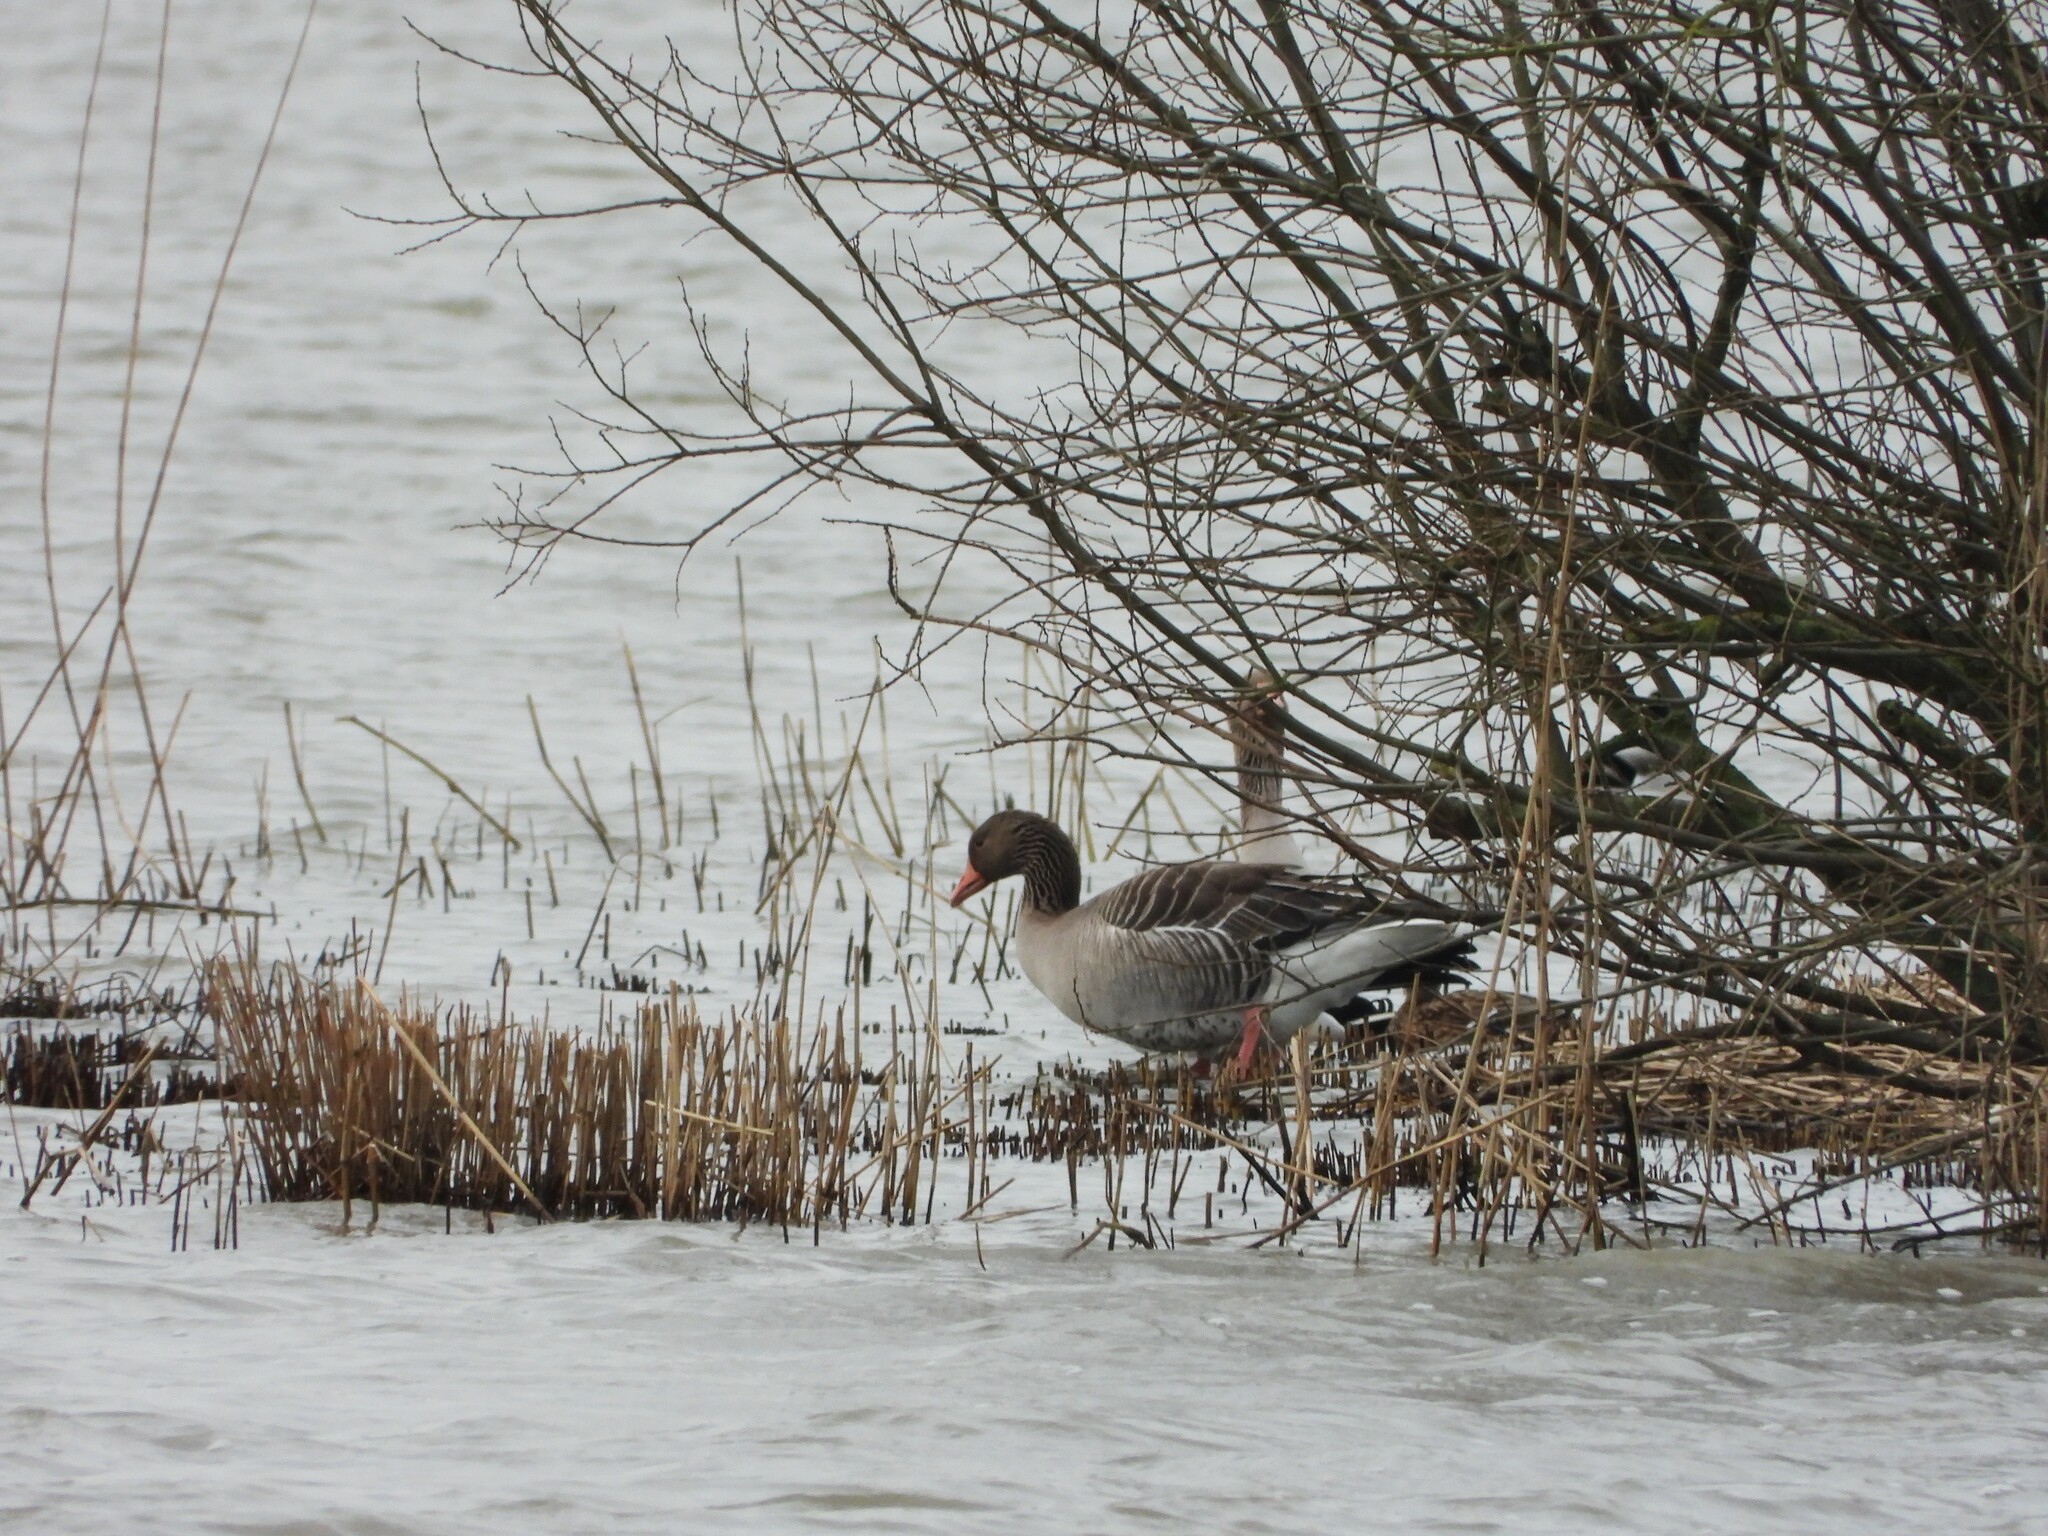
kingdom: Animalia
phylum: Chordata
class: Aves
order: Anseriformes
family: Anatidae
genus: Anser
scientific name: Anser anser
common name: Greylag goose
